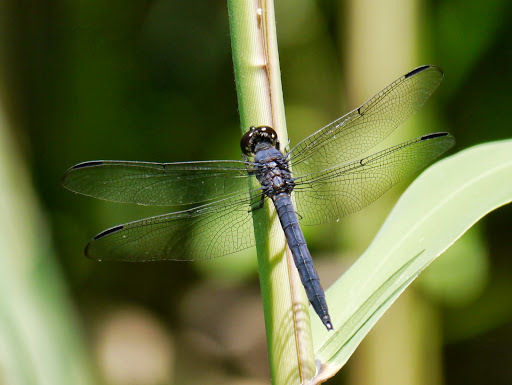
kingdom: Animalia
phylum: Arthropoda
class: Insecta
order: Odonata
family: Libellulidae
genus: Libellula
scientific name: Libellula incesta
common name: Slaty skimmer
